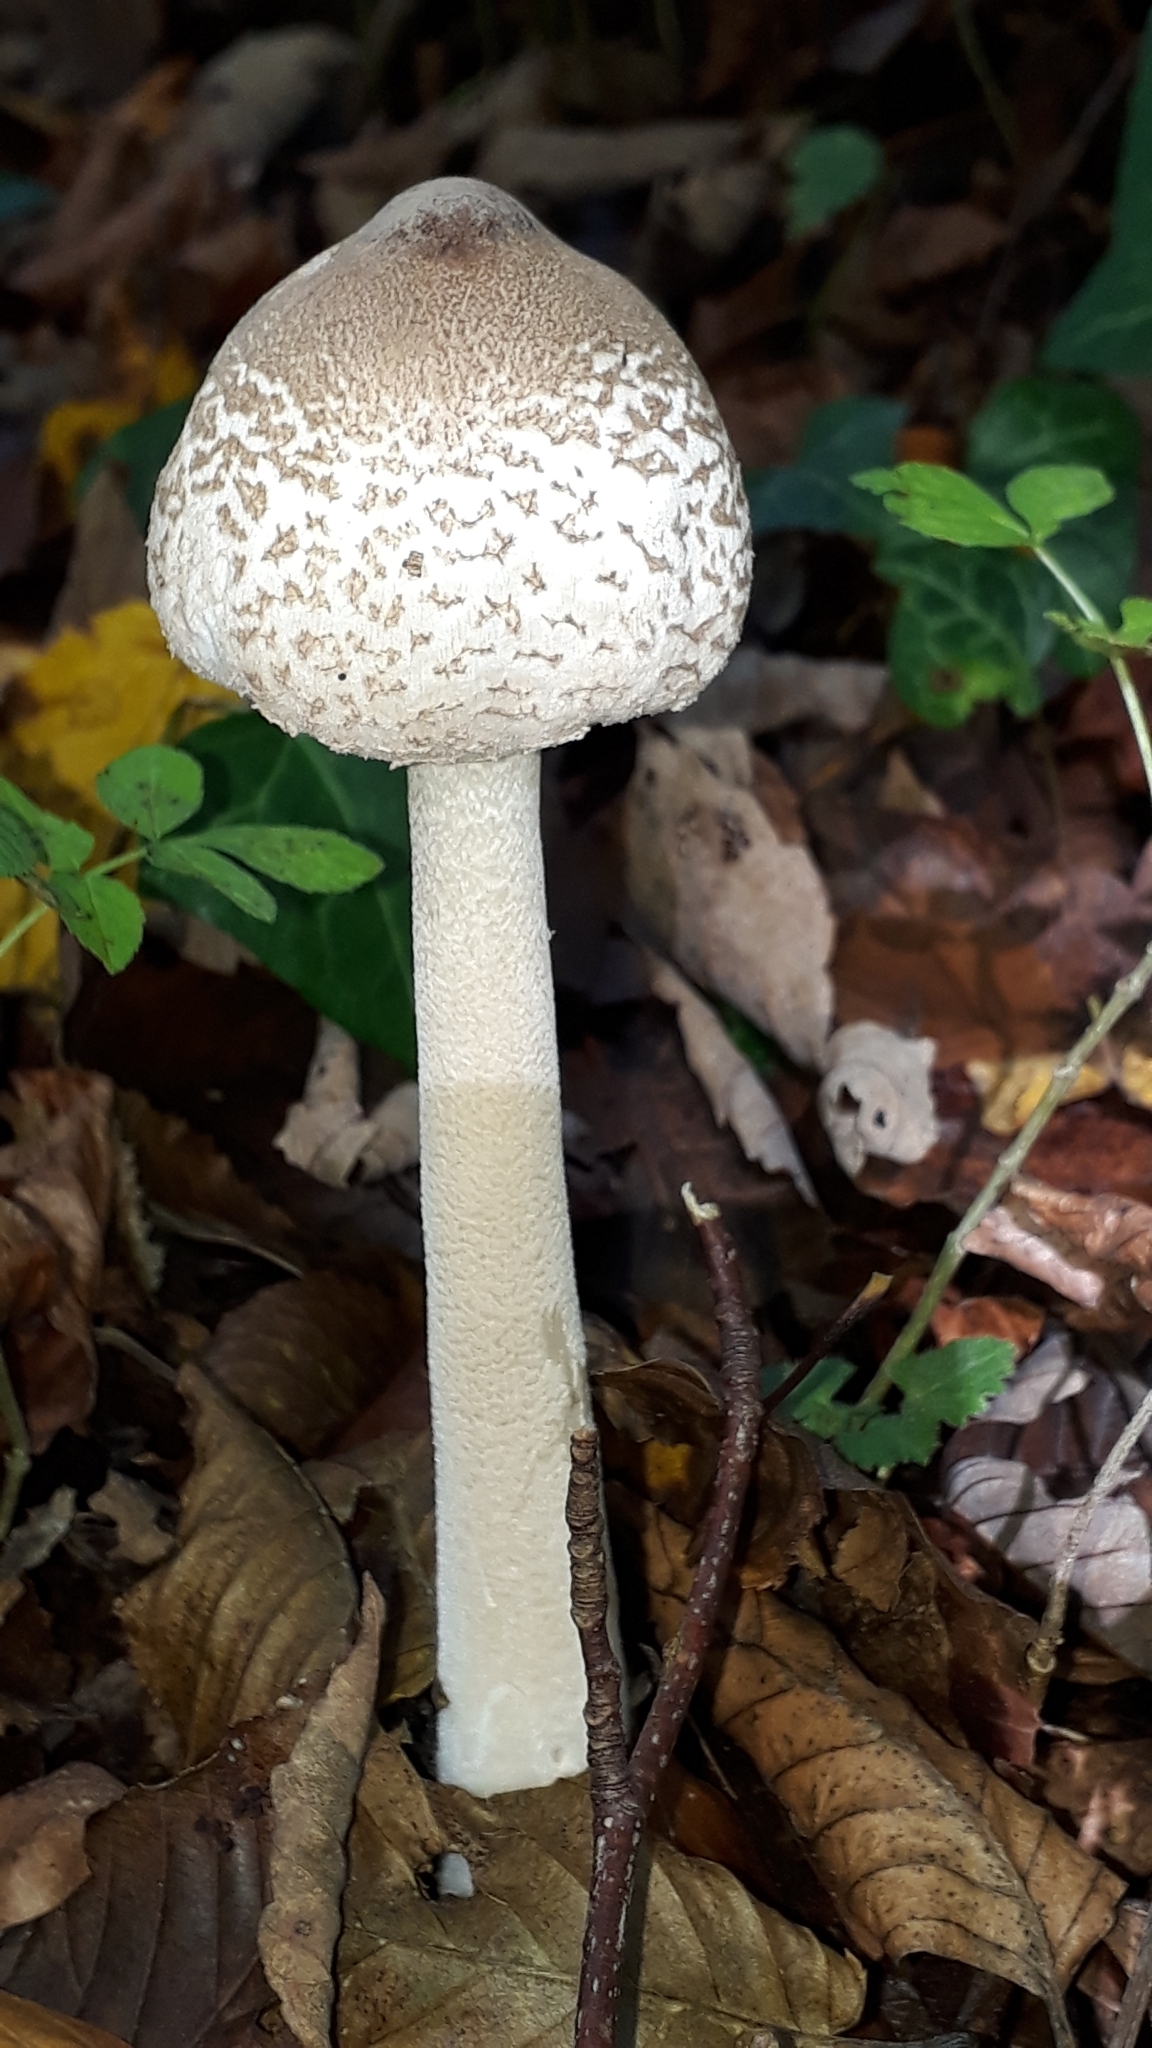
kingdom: Fungi
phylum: Basidiomycota
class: Agaricomycetes
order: Agaricales
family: Agaricaceae
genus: Macrolepiota
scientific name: Macrolepiota mastoidea
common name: Slender parasol
